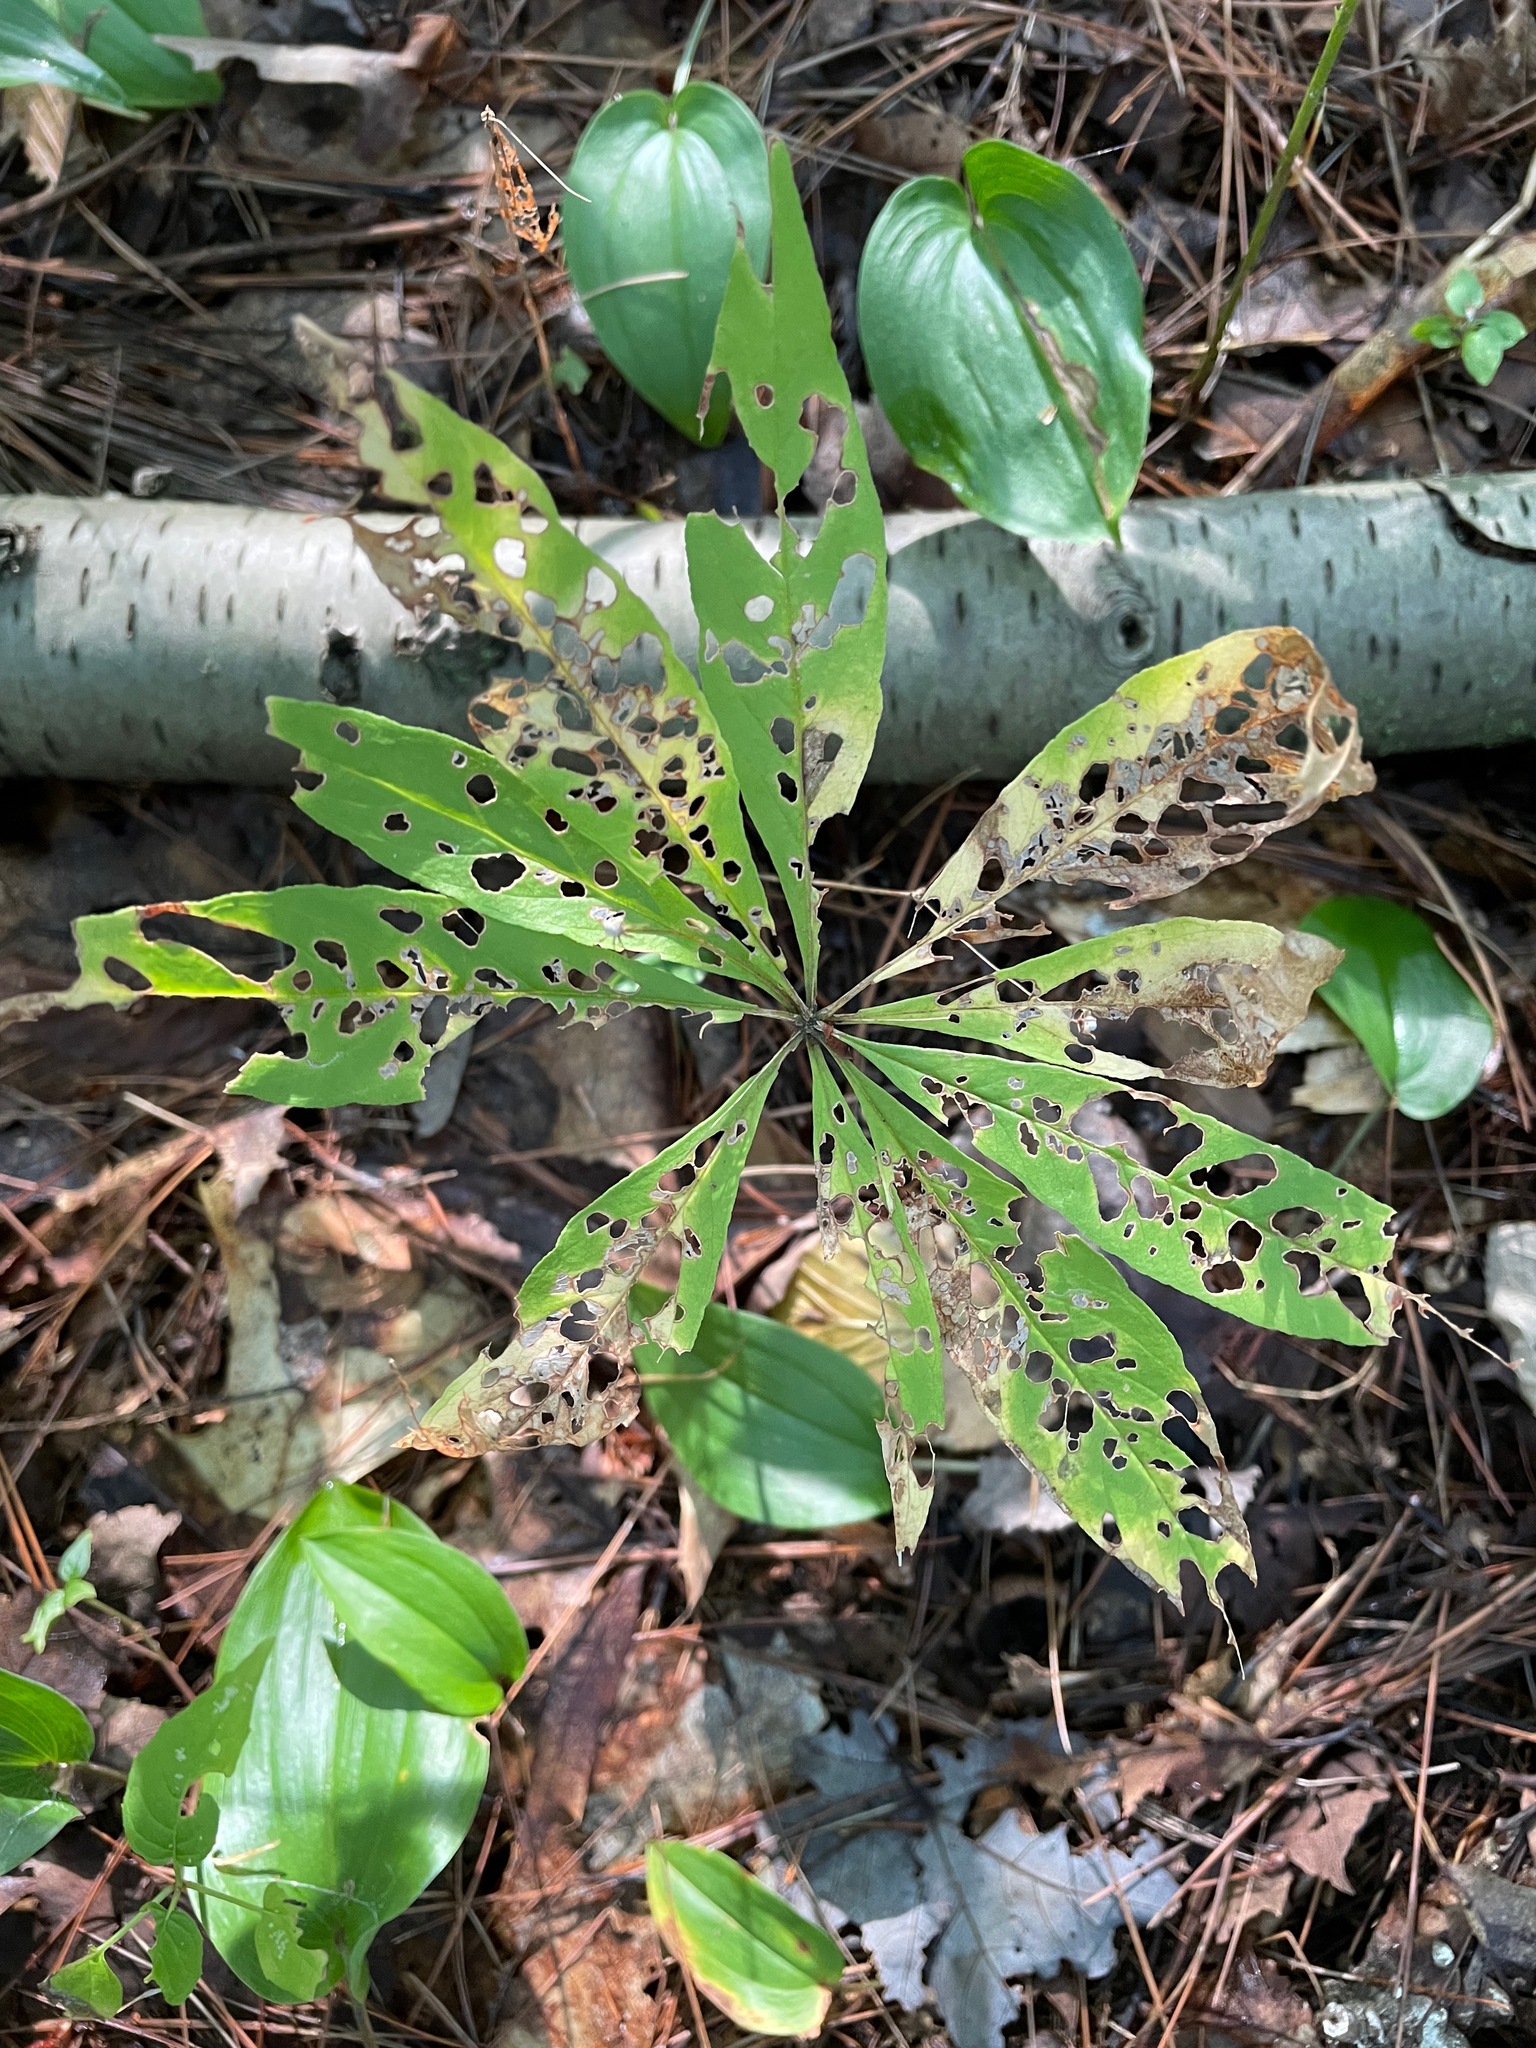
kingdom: Plantae
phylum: Tracheophyta
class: Magnoliopsida
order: Ericales
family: Primulaceae
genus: Lysimachia
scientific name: Lysimachia borealis
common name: American starflower
